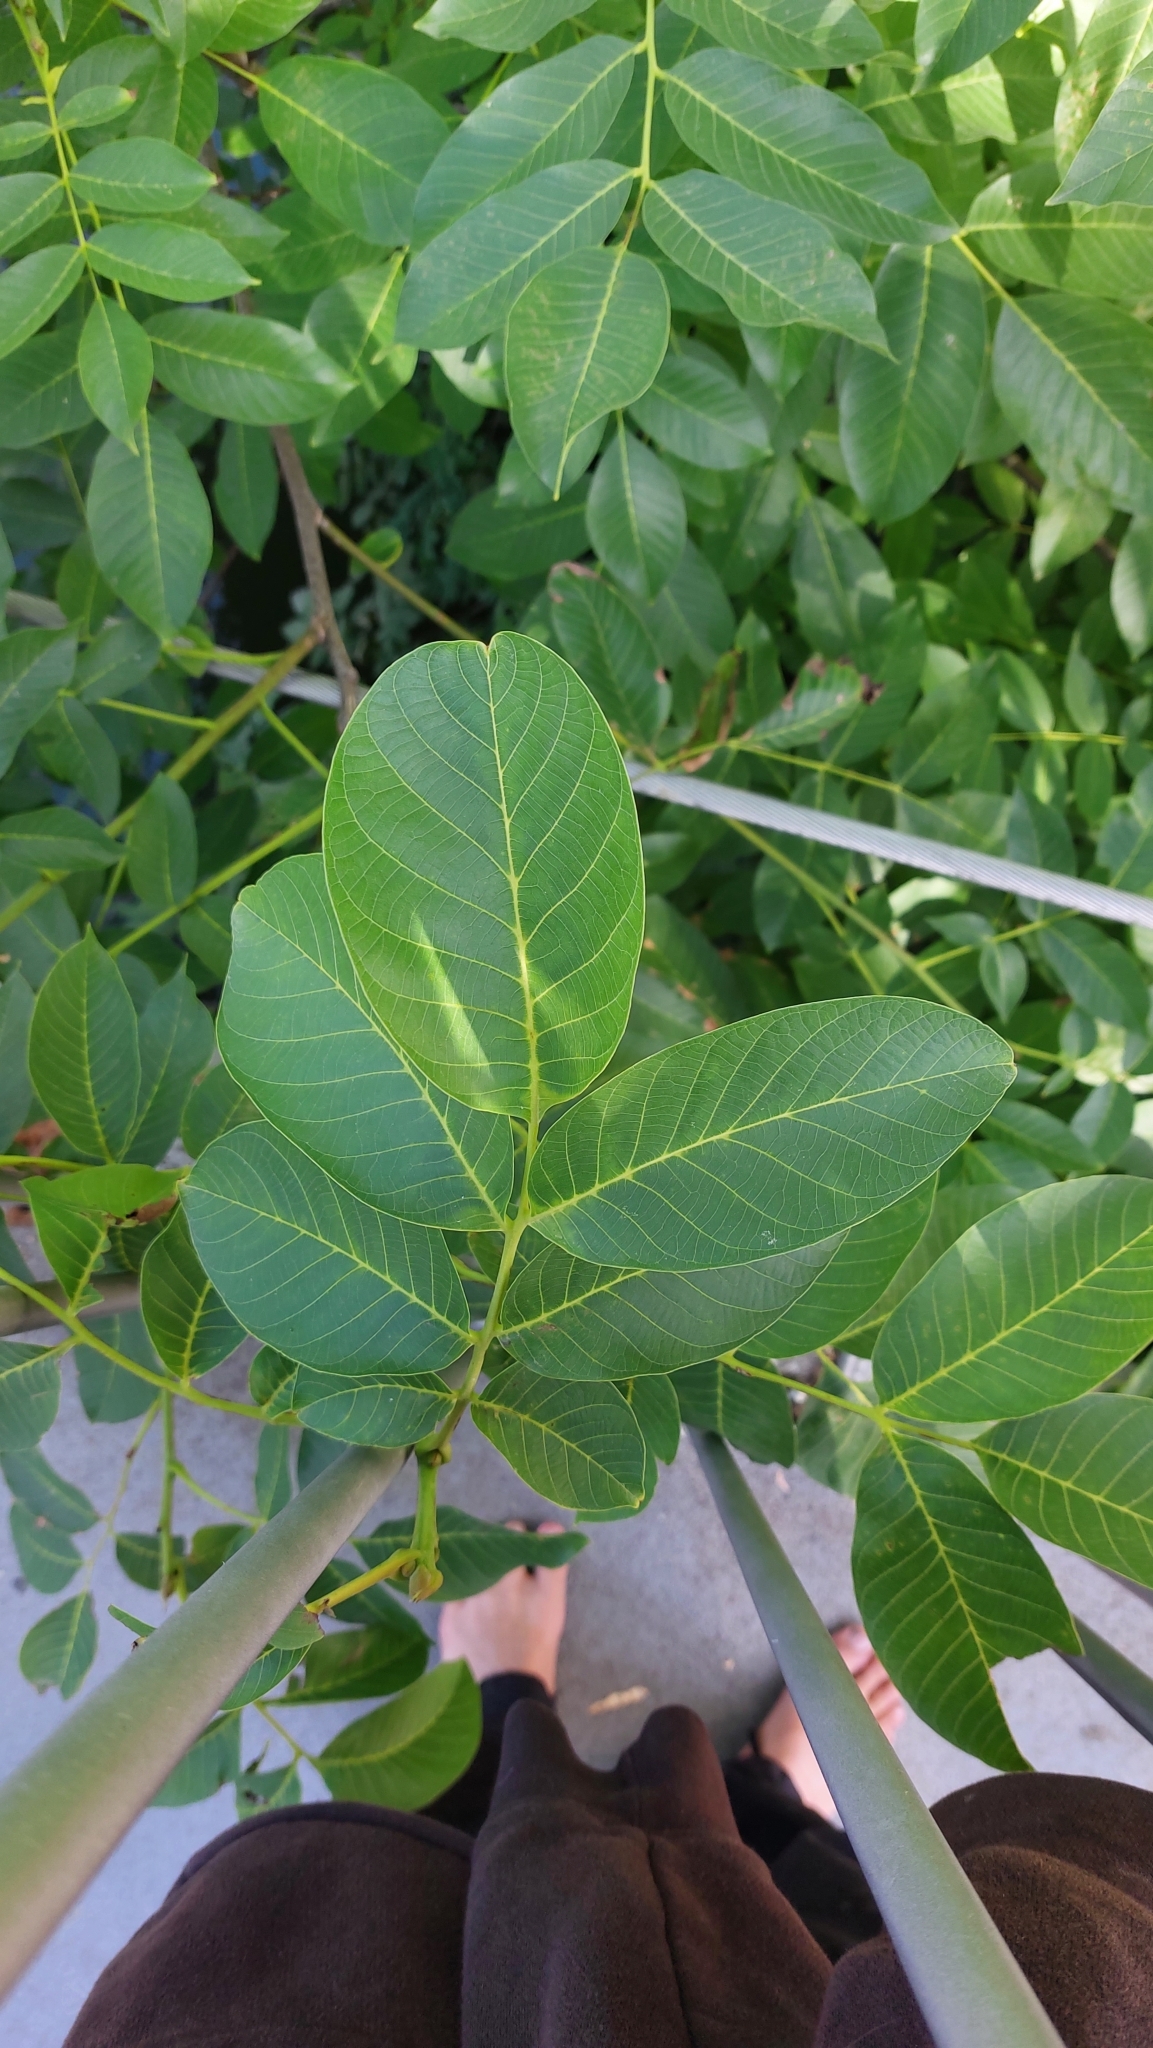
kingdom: Plantae
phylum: Tracheophyta
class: Magnoliopsida
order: Fagales
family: Juglandaceae
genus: Juglans
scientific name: Juglans regia
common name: Walnut
